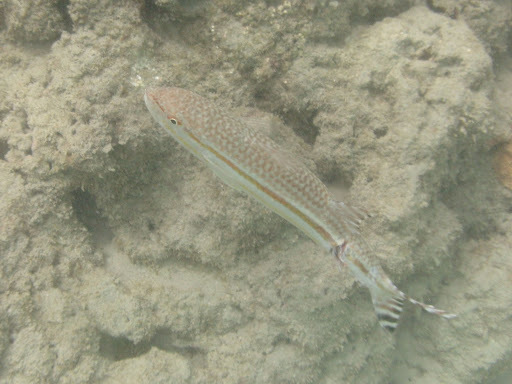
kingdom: Animalia
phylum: Chordata
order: Perciformes
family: Mullidae
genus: Upeneus
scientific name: Upeneus taeniopterus
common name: Band-tail goatfish
